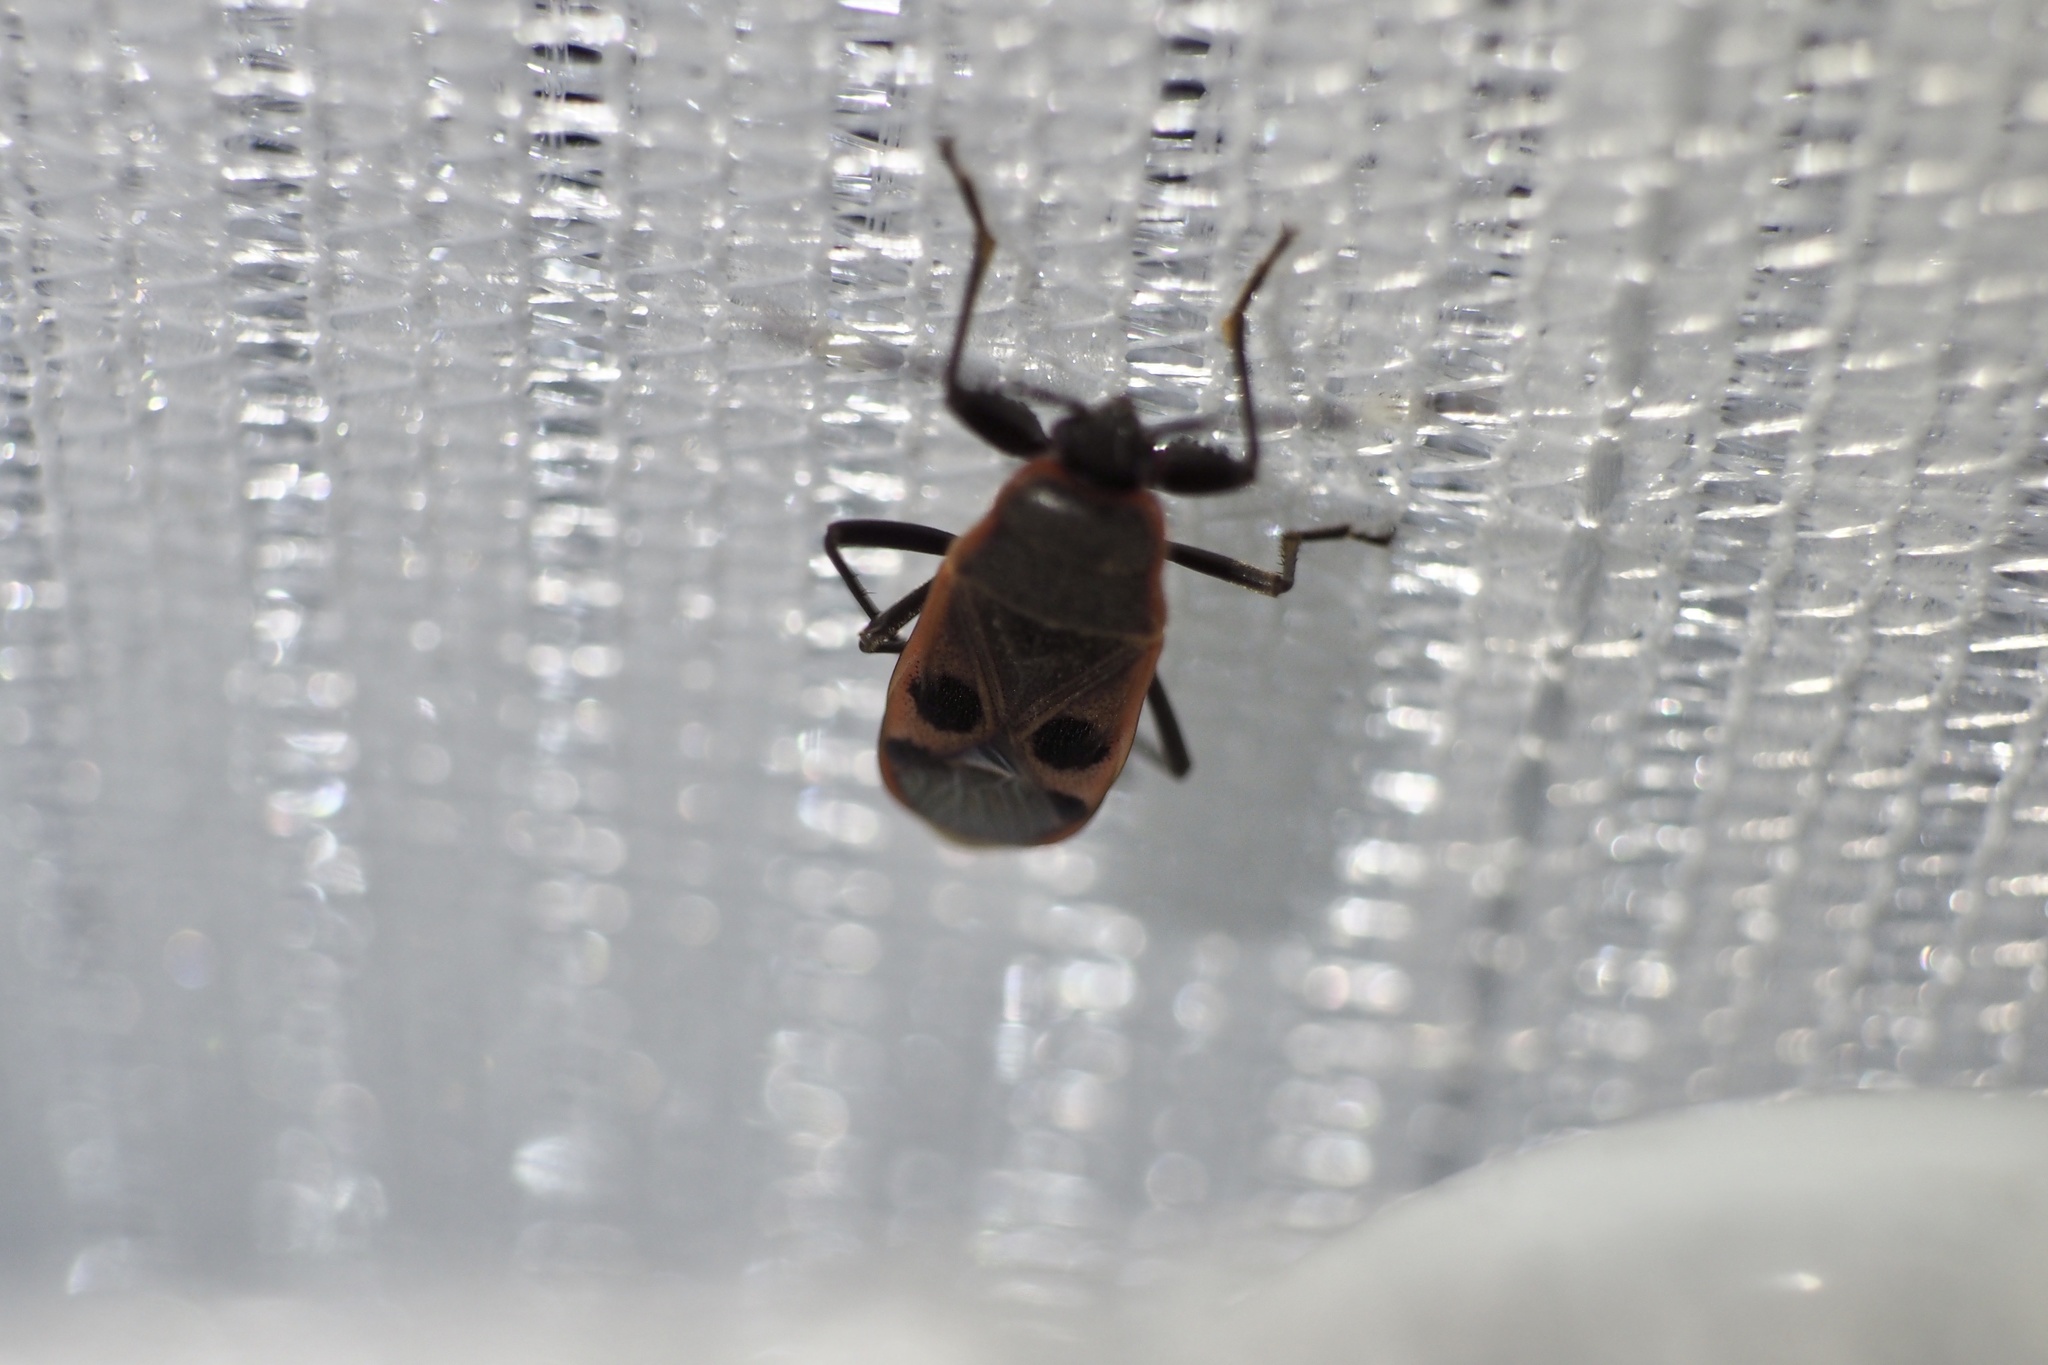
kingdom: Animalia
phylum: Arthropoda
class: Insecta
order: Hemiptera
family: Largidae
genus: Physopelta
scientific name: Physopelta parviceps
